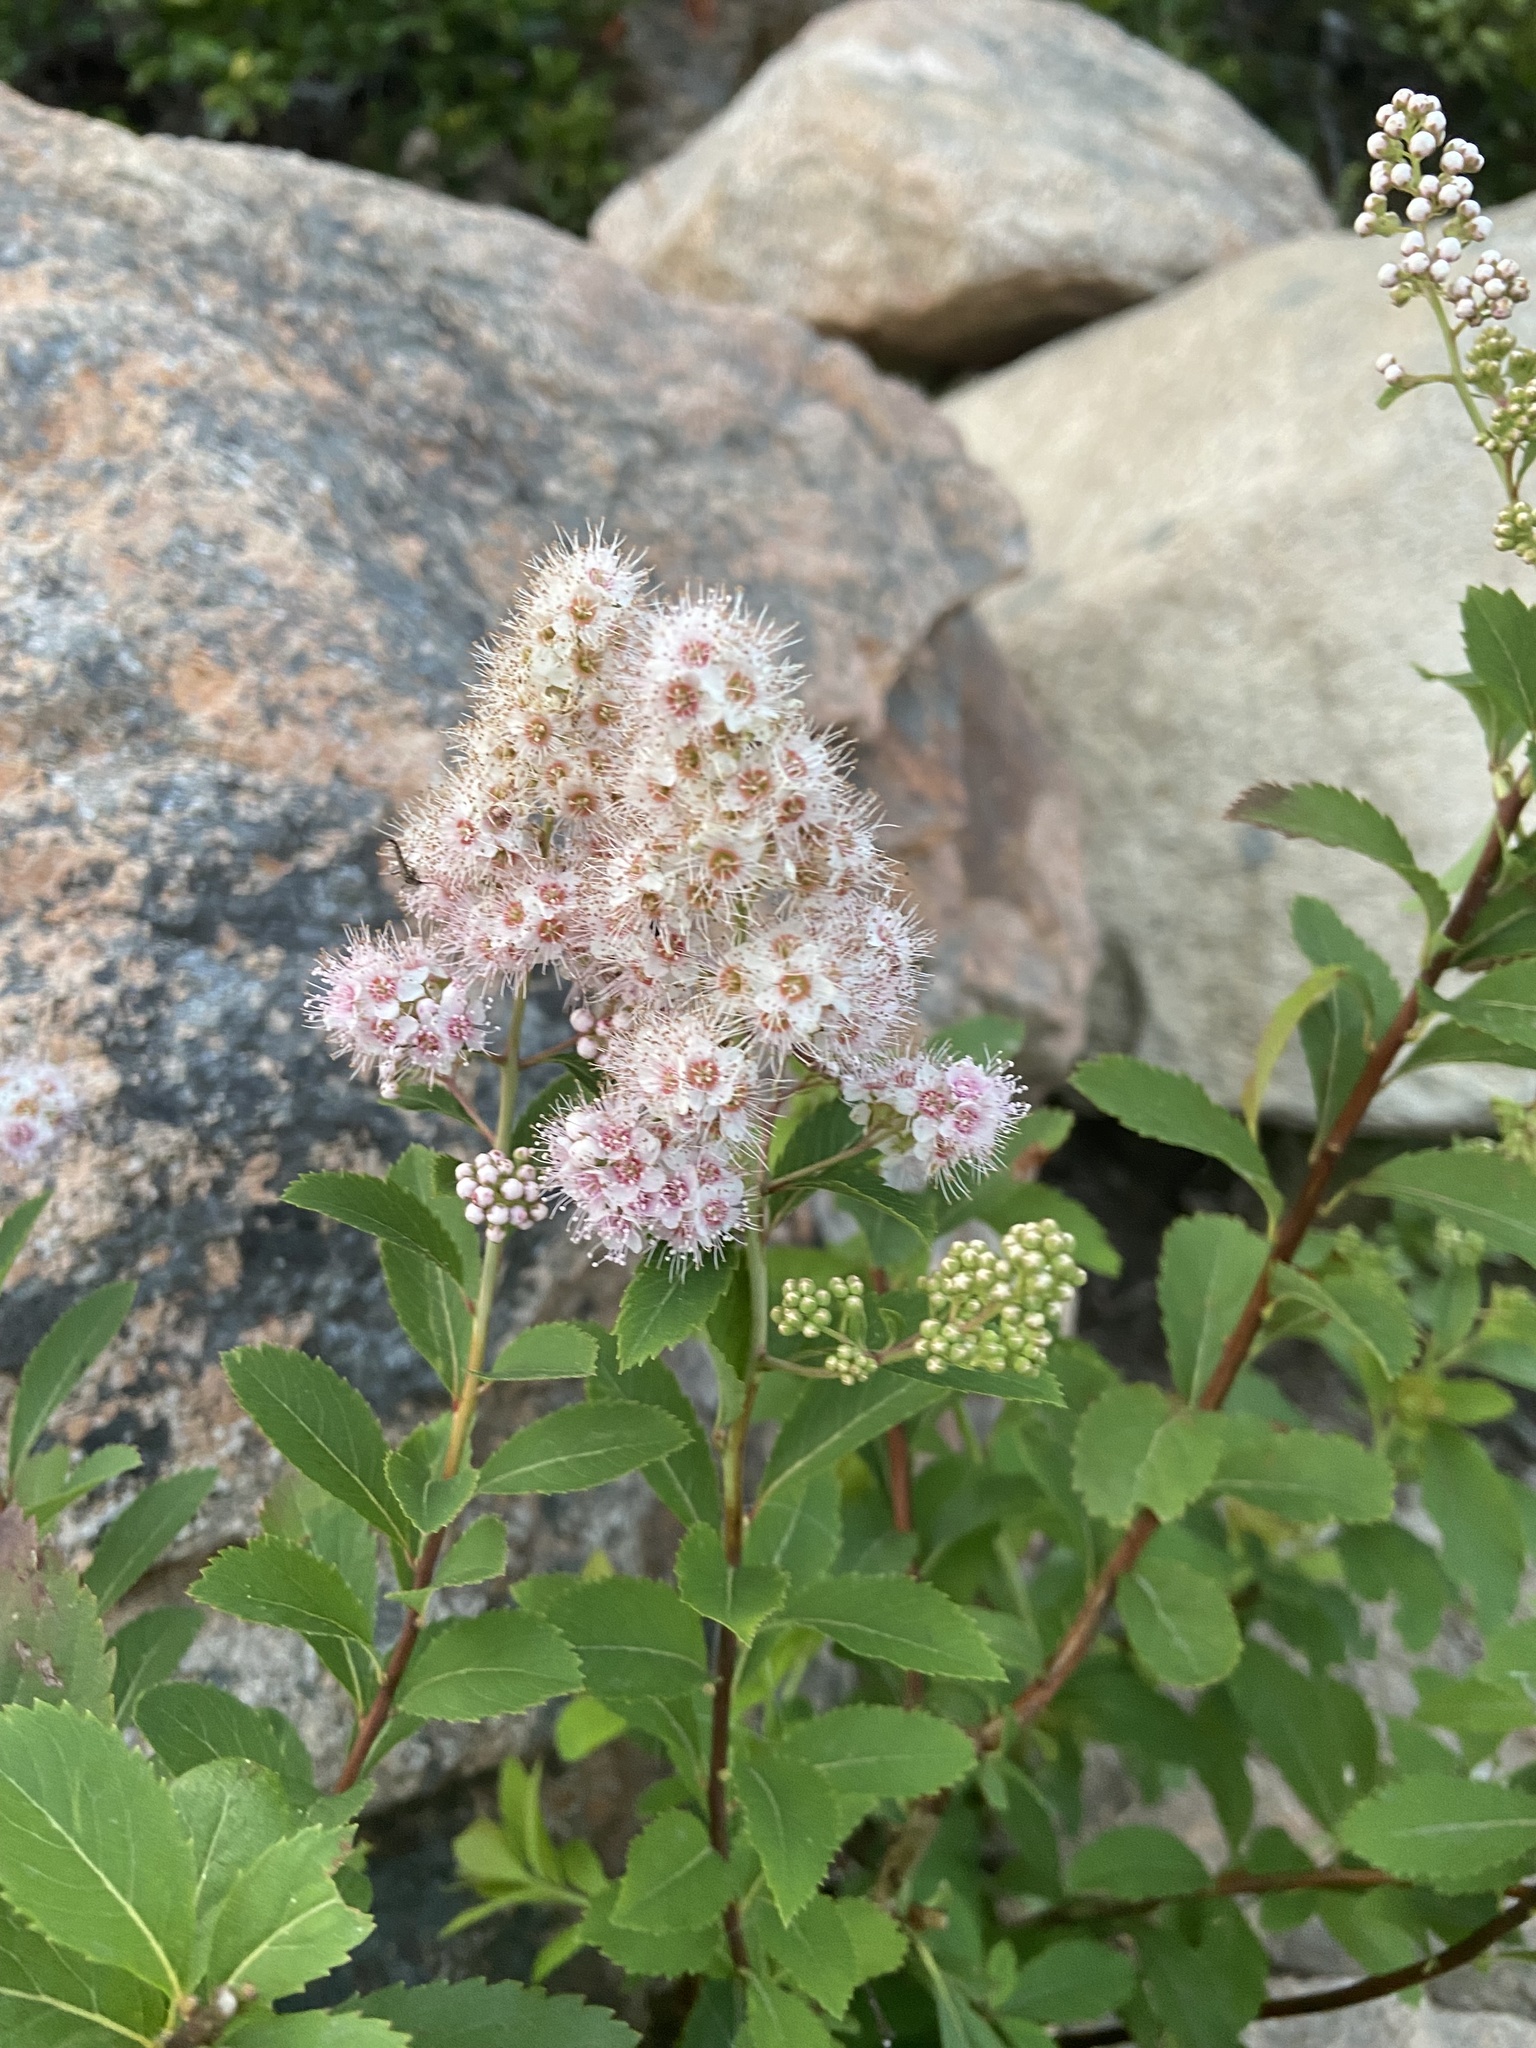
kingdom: Plantae
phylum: Tracheophyta
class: Magnoliopsida
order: Rosales
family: Rosaceae
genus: Spiraea
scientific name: Spiraea alba
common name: Pale bridewort
